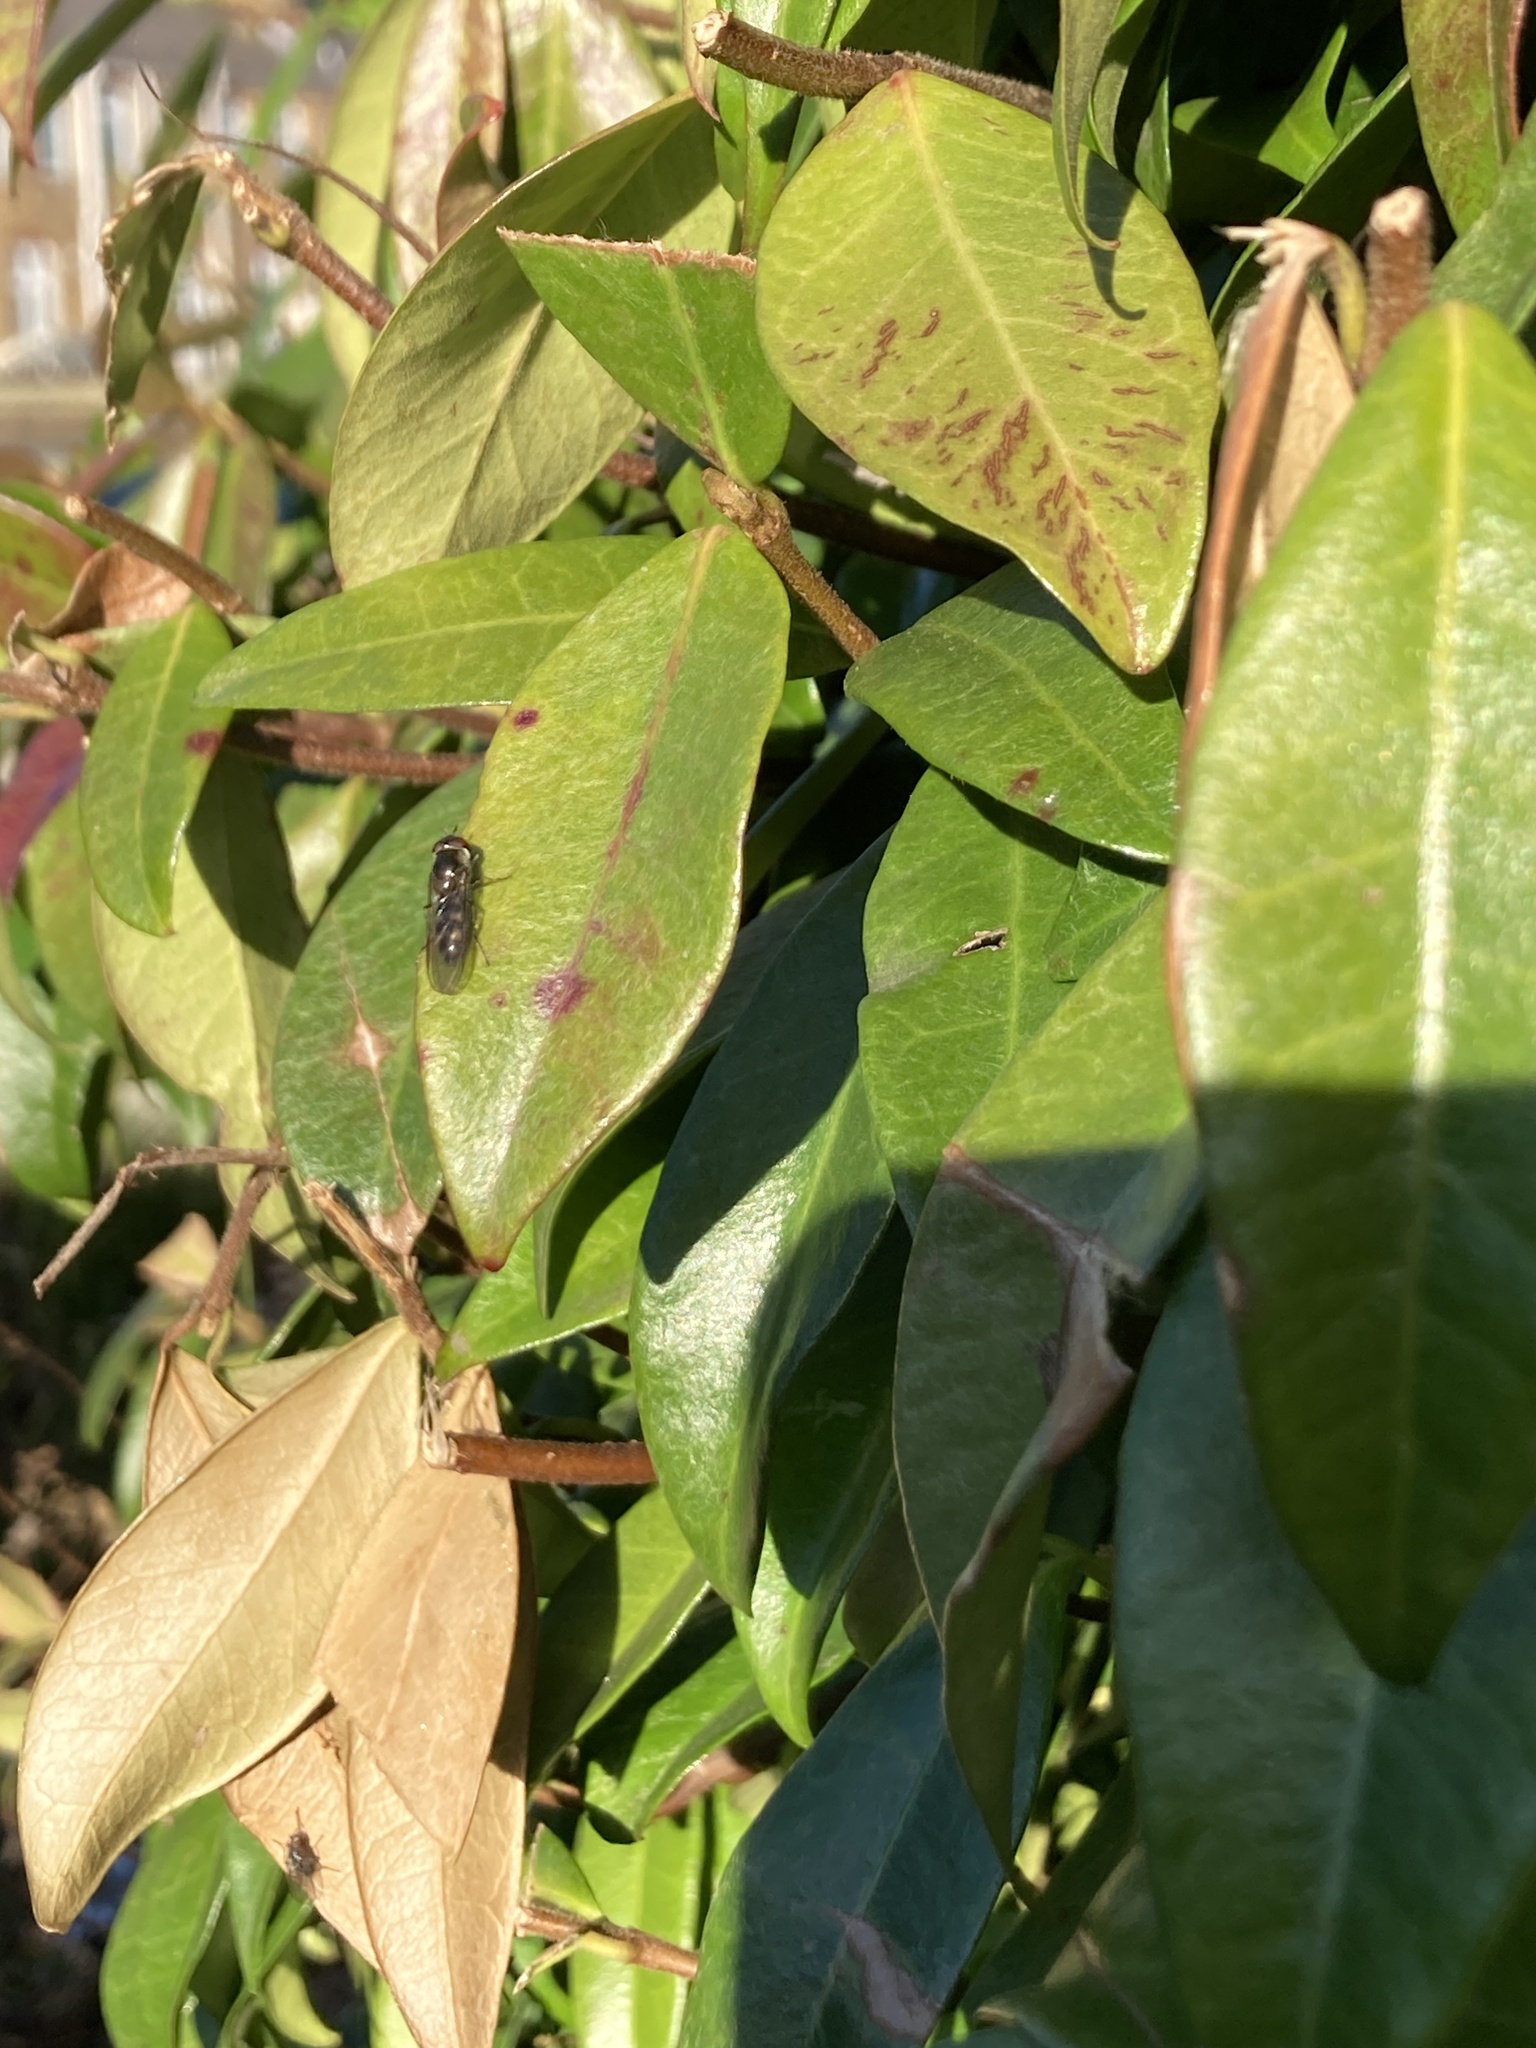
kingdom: Animalia
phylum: Arthropoda
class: Insecta
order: Diptera
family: Syrphidae
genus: Meliscaeva
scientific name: Meliscaeva auricollis
